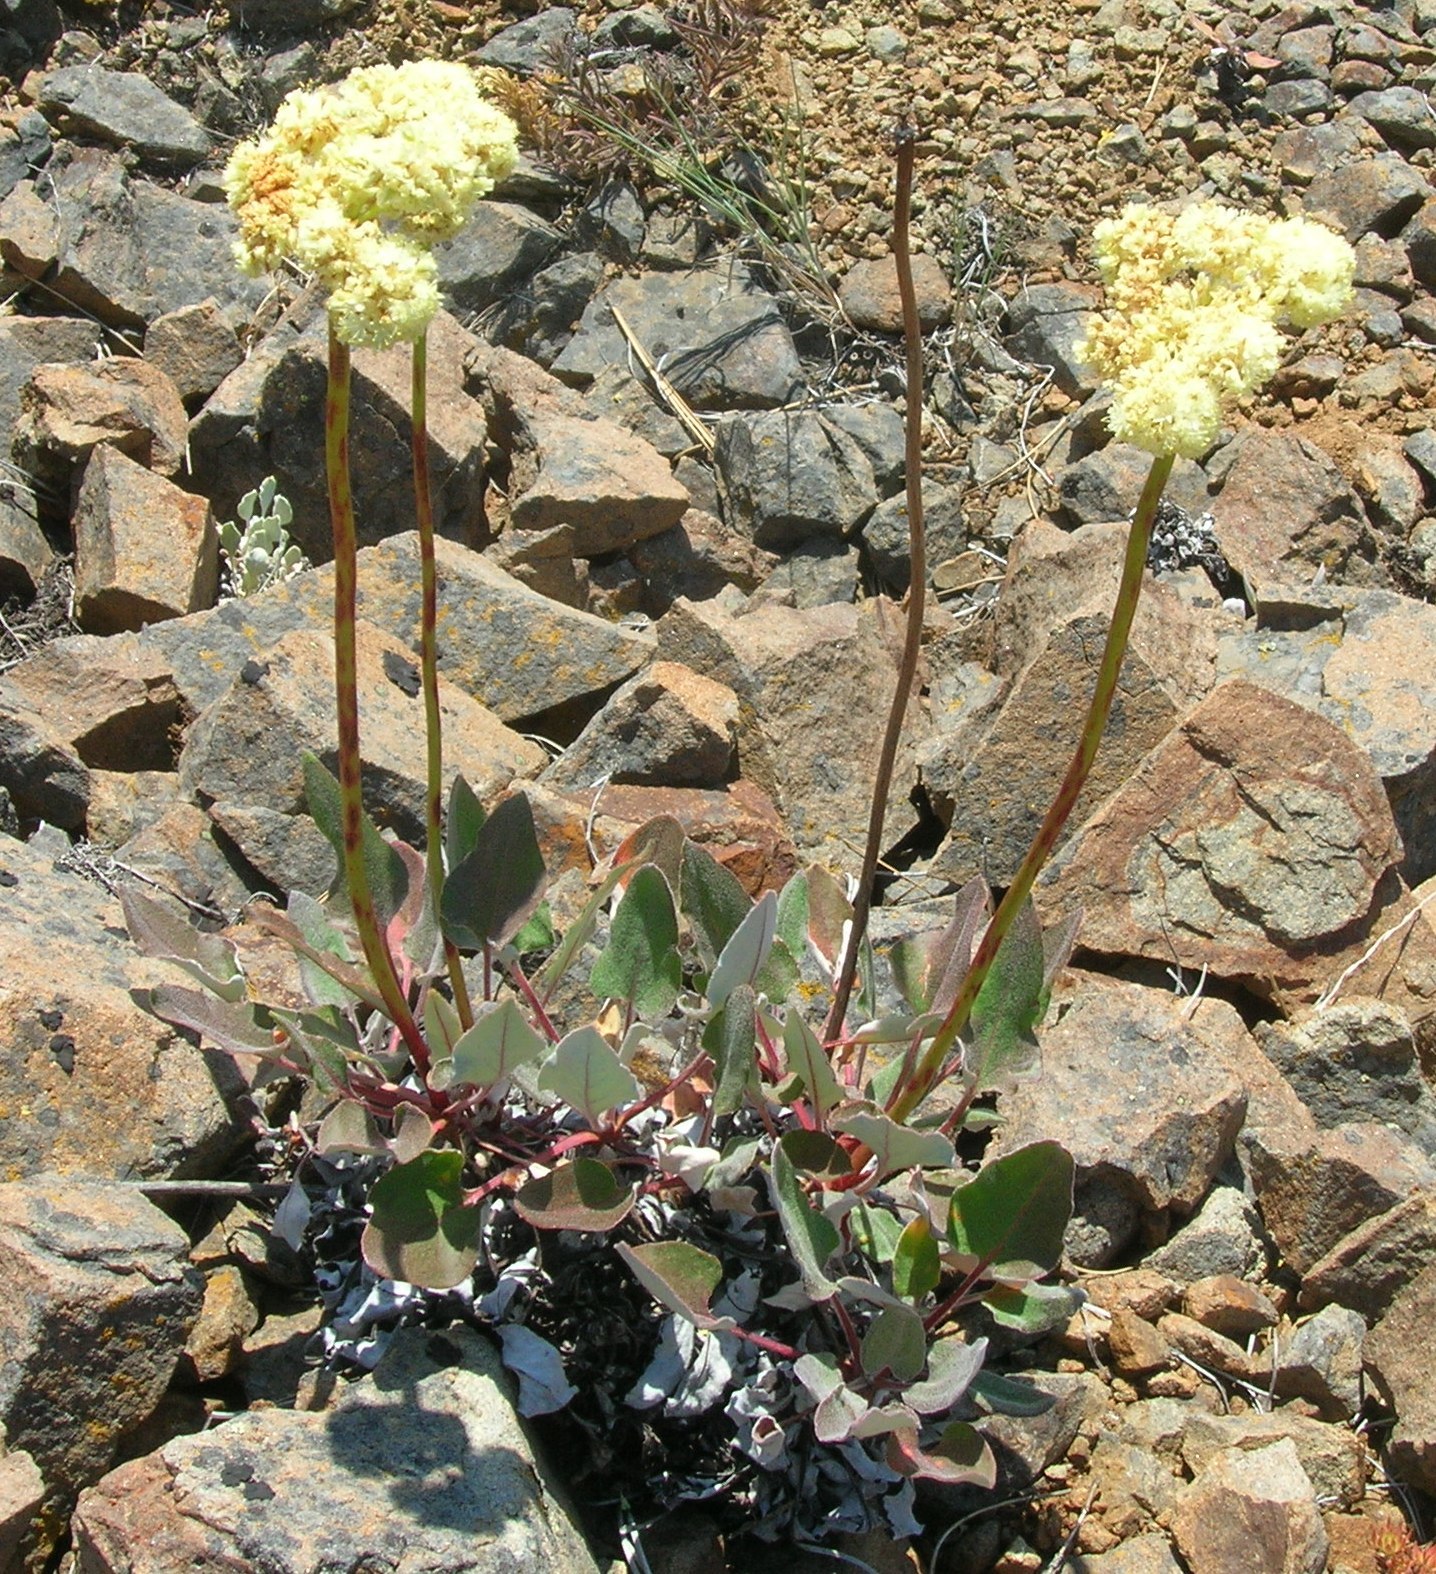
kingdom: Plantae
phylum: Tracheophyta
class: Magnoliopsida
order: Caryophyllales
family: Polygonaceae
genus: Eriogonum
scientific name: Eriogonum compositum
